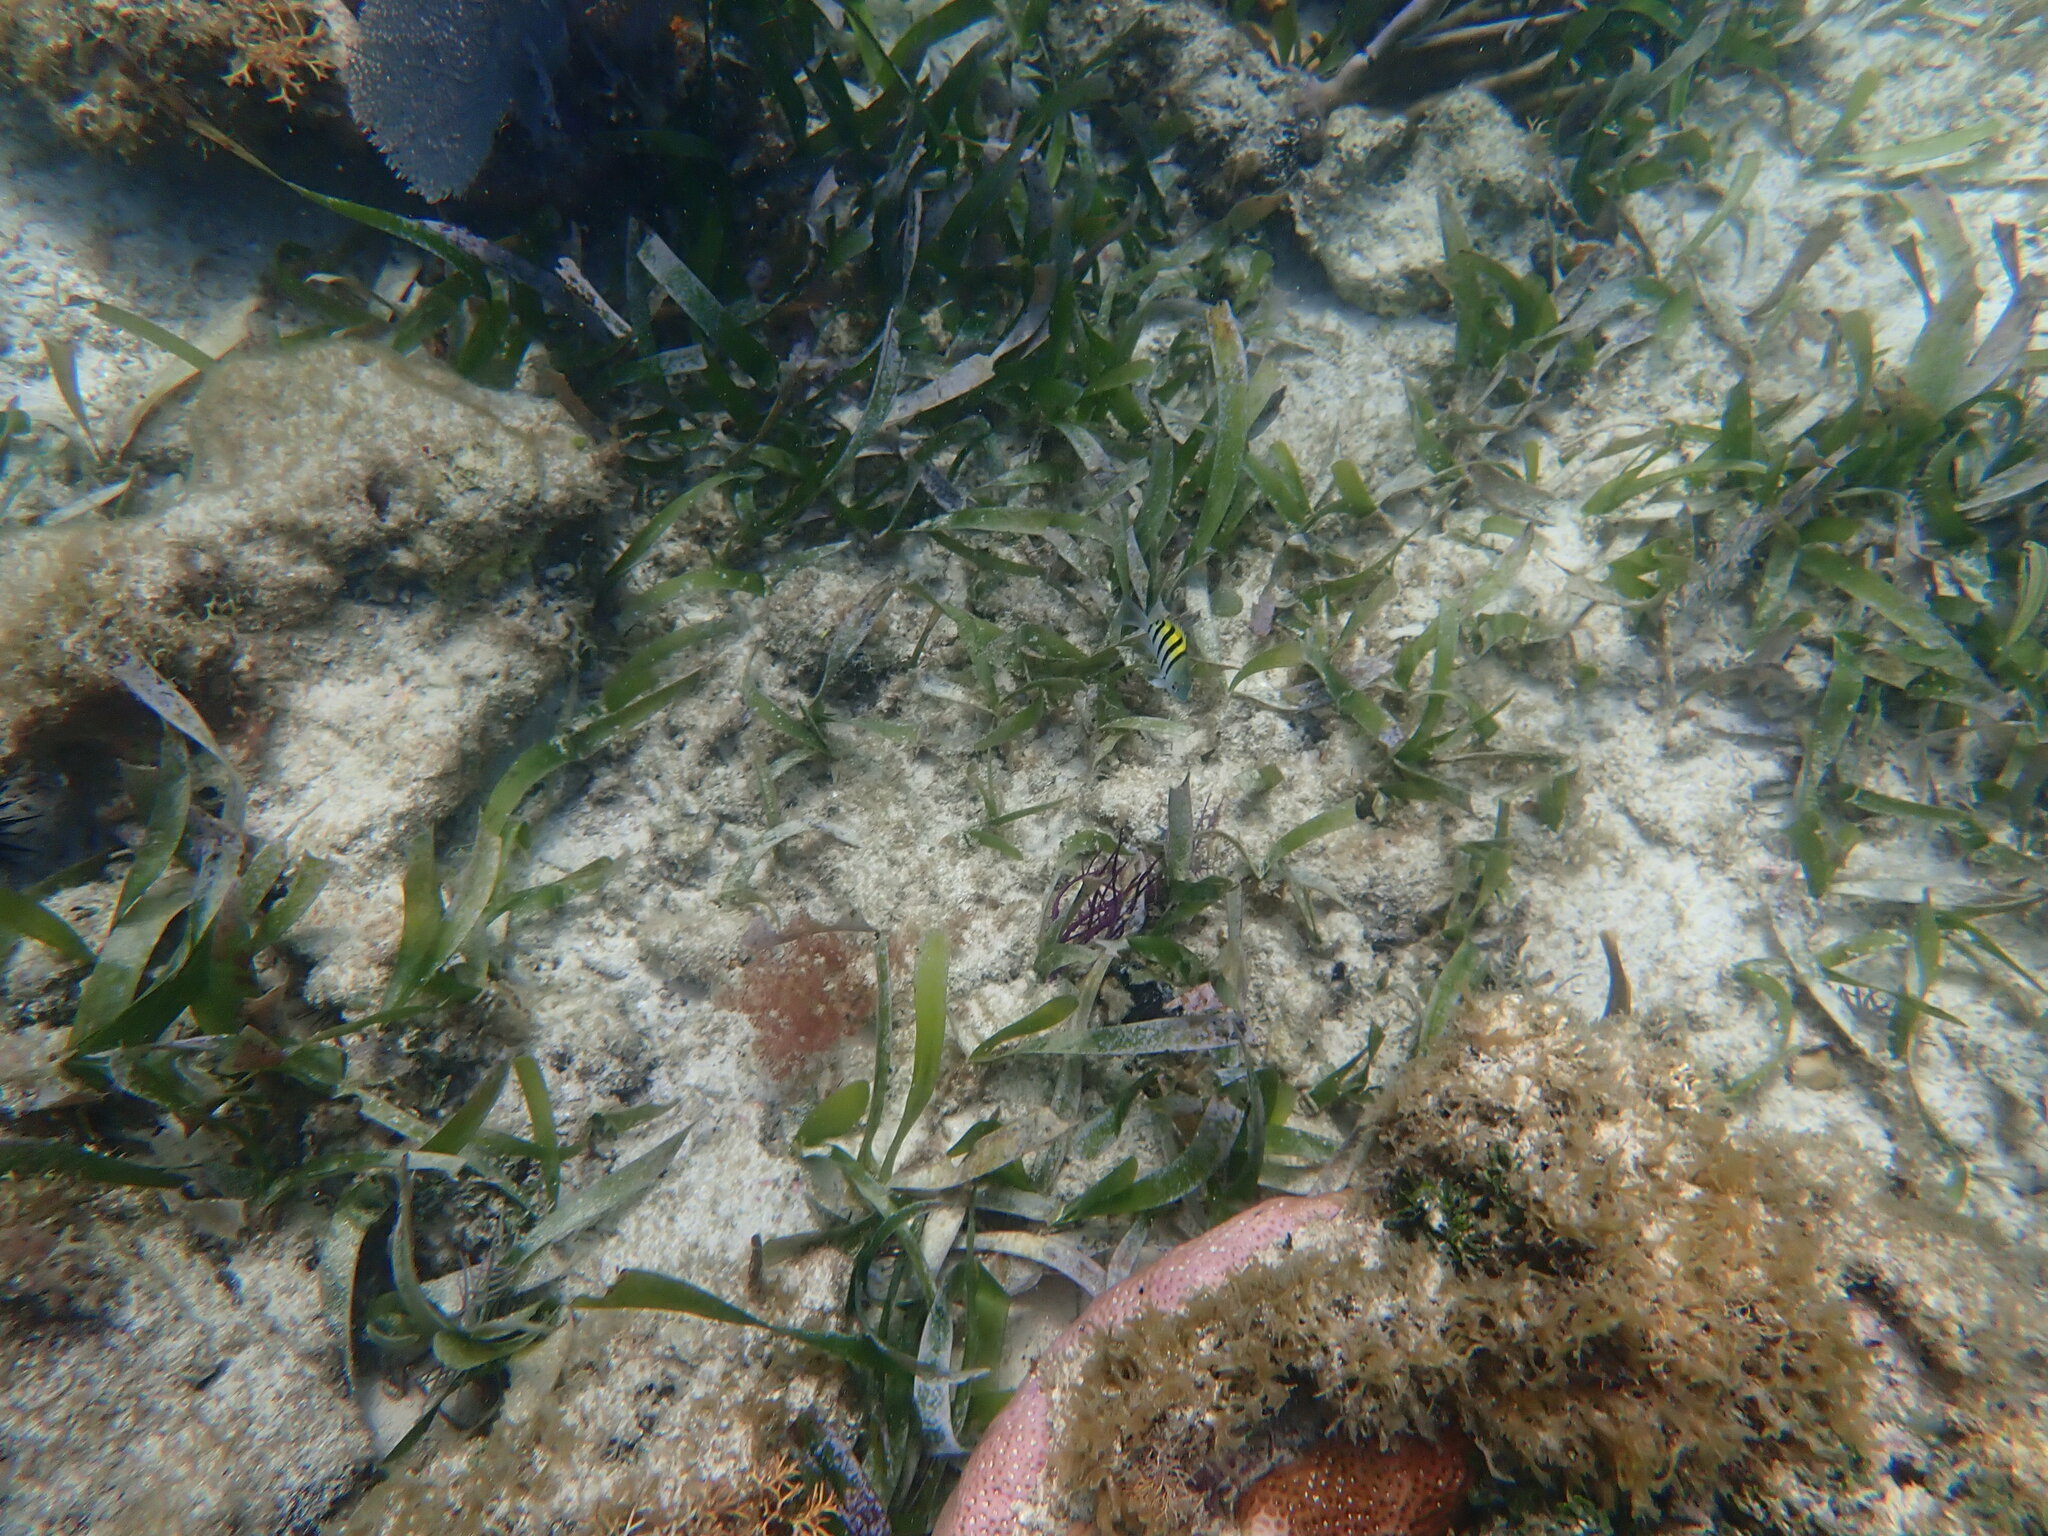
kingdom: Animalia
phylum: Chordata
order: Perciformes
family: Pomacentridae
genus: Abudefduf
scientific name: Abudefduf saxatilis
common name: Sergeant major
